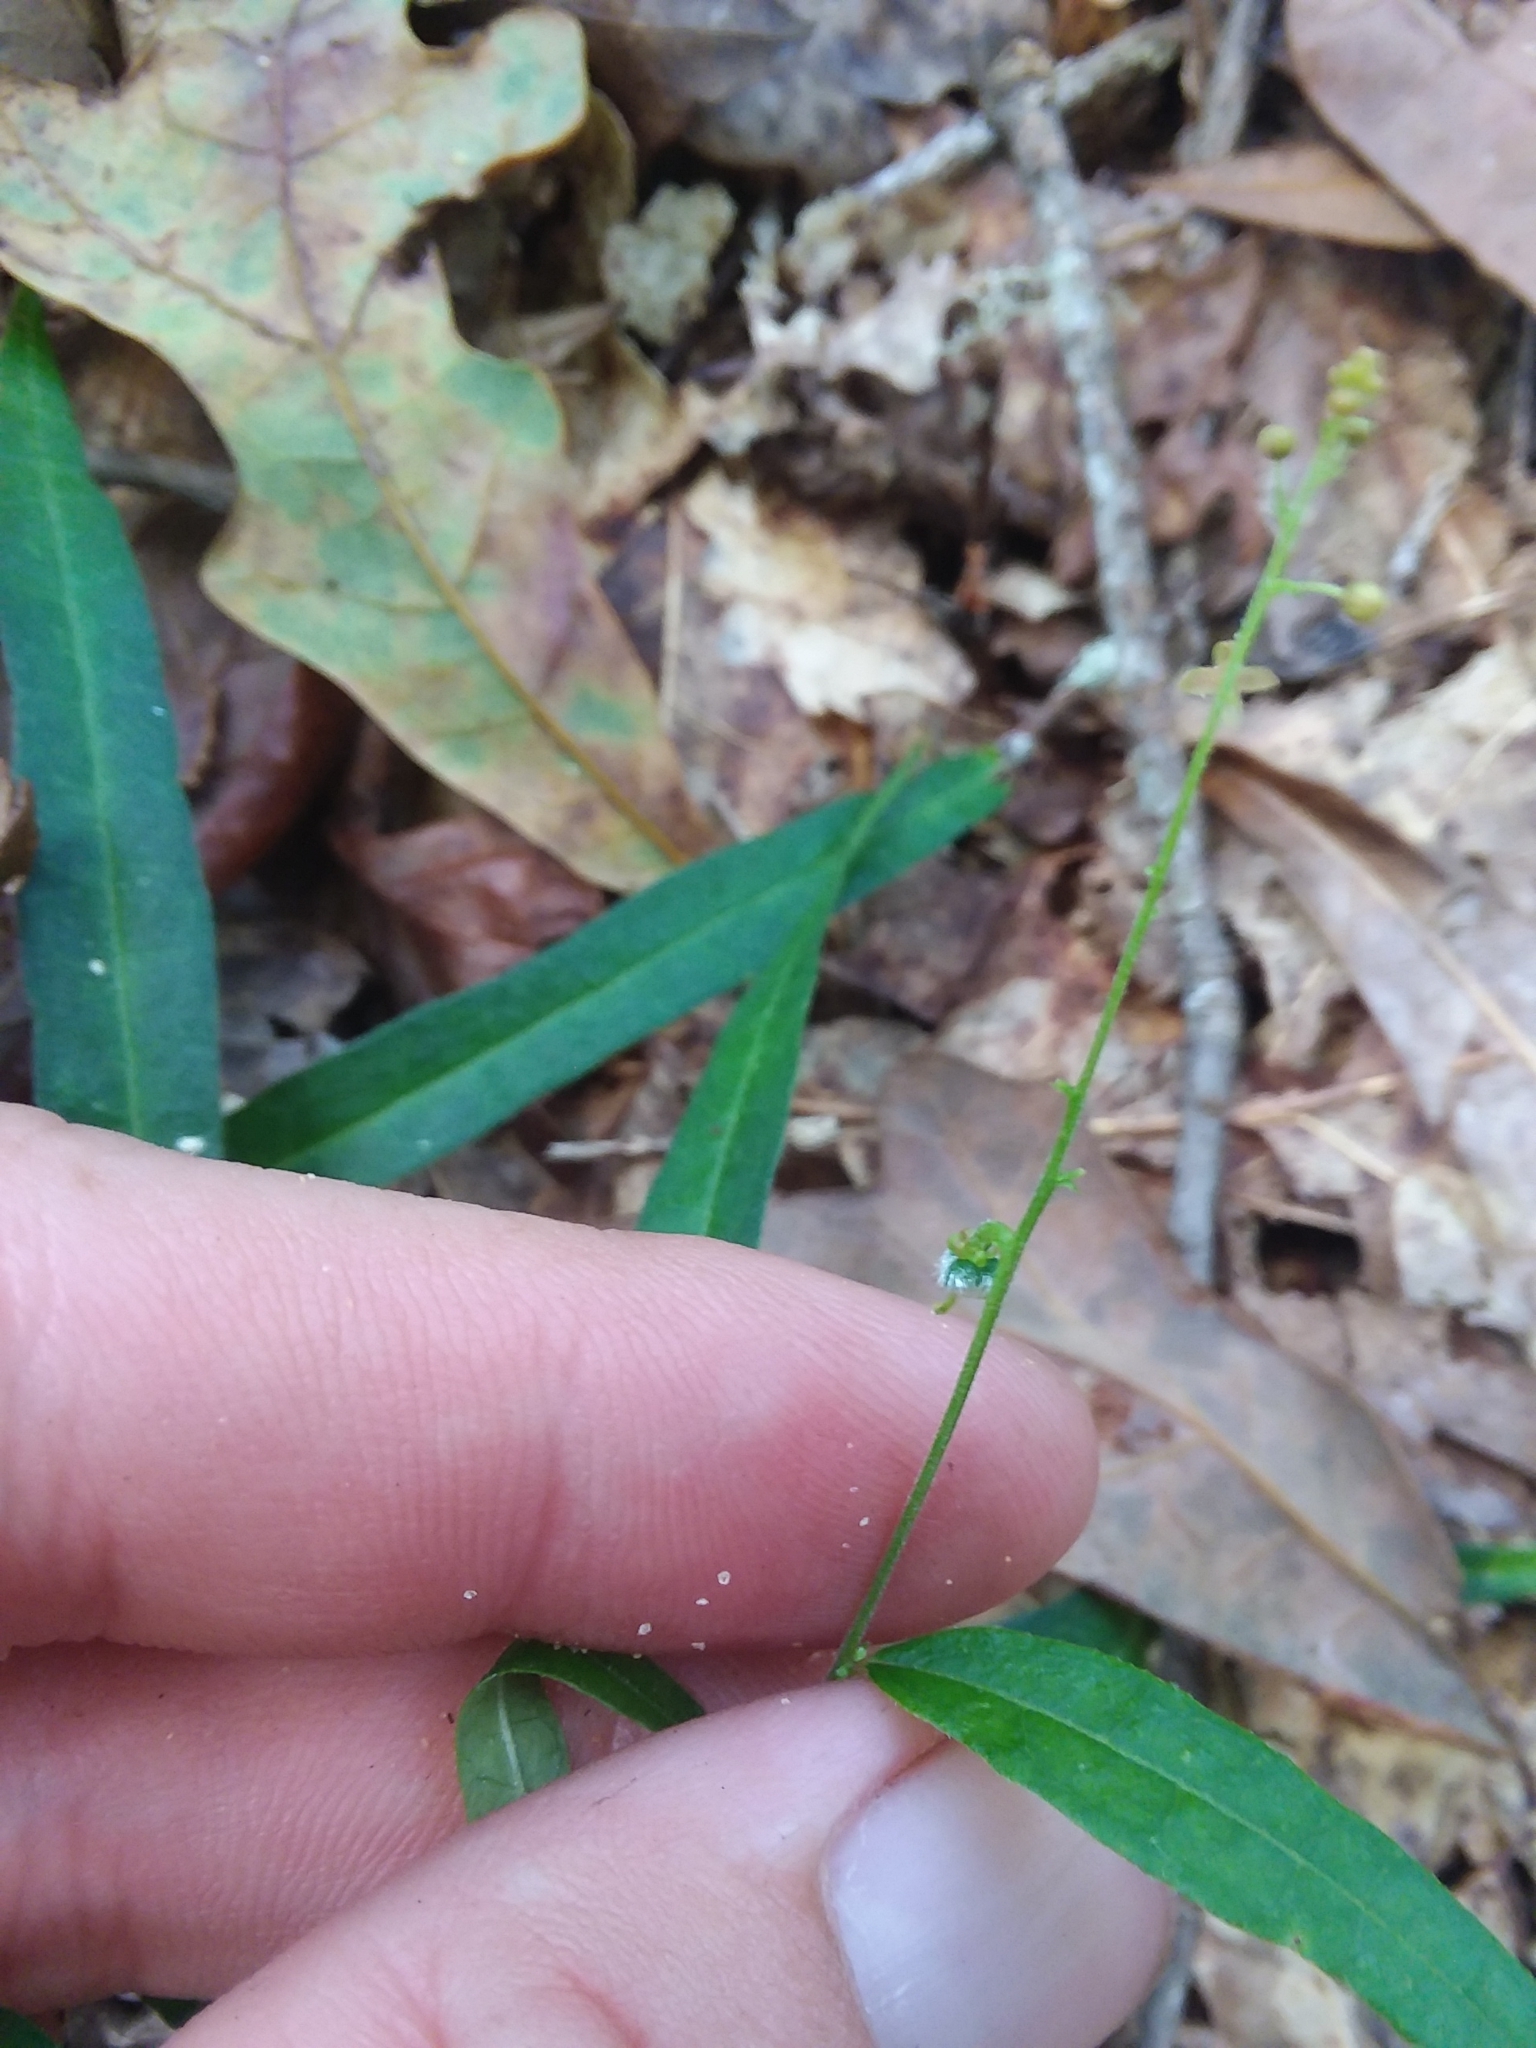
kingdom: Plantae
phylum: Tracheophyta
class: Magnoliopsida
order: Malpighiales
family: Euphorbiaceae
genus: Tragia
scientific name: Tragia urens
